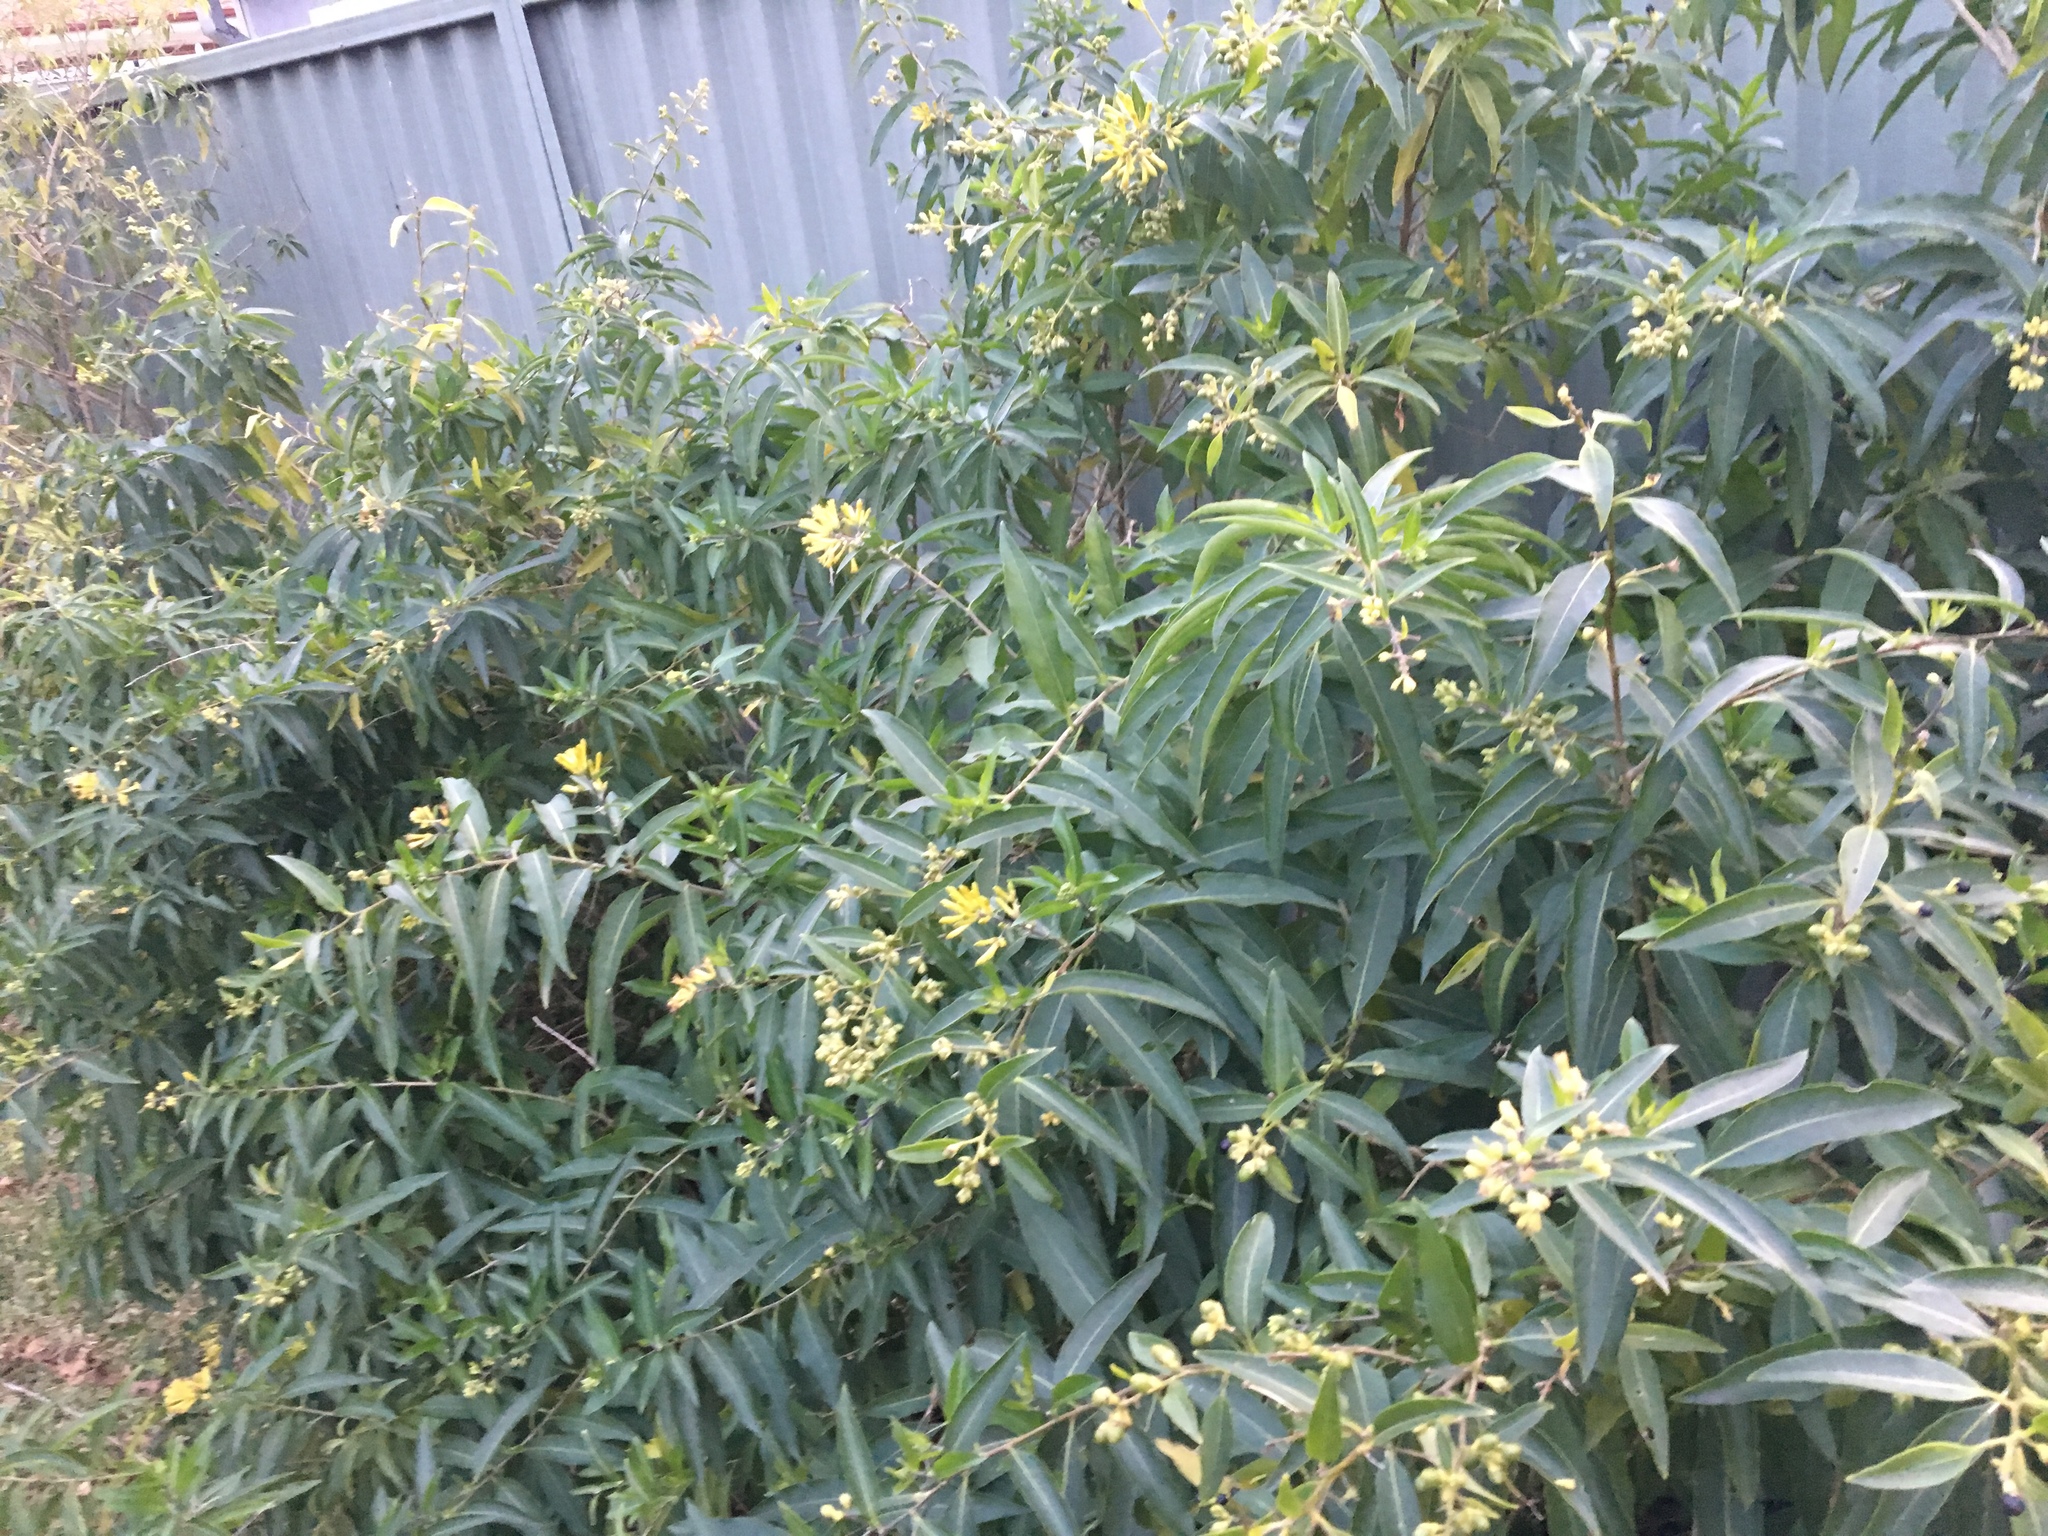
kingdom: Plantae
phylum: Tracheophyta
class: Magnoliopsida
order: Solanales
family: Solanaceae
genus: Cestrum
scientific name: Cestrum parqui
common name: Chilean cestrum
